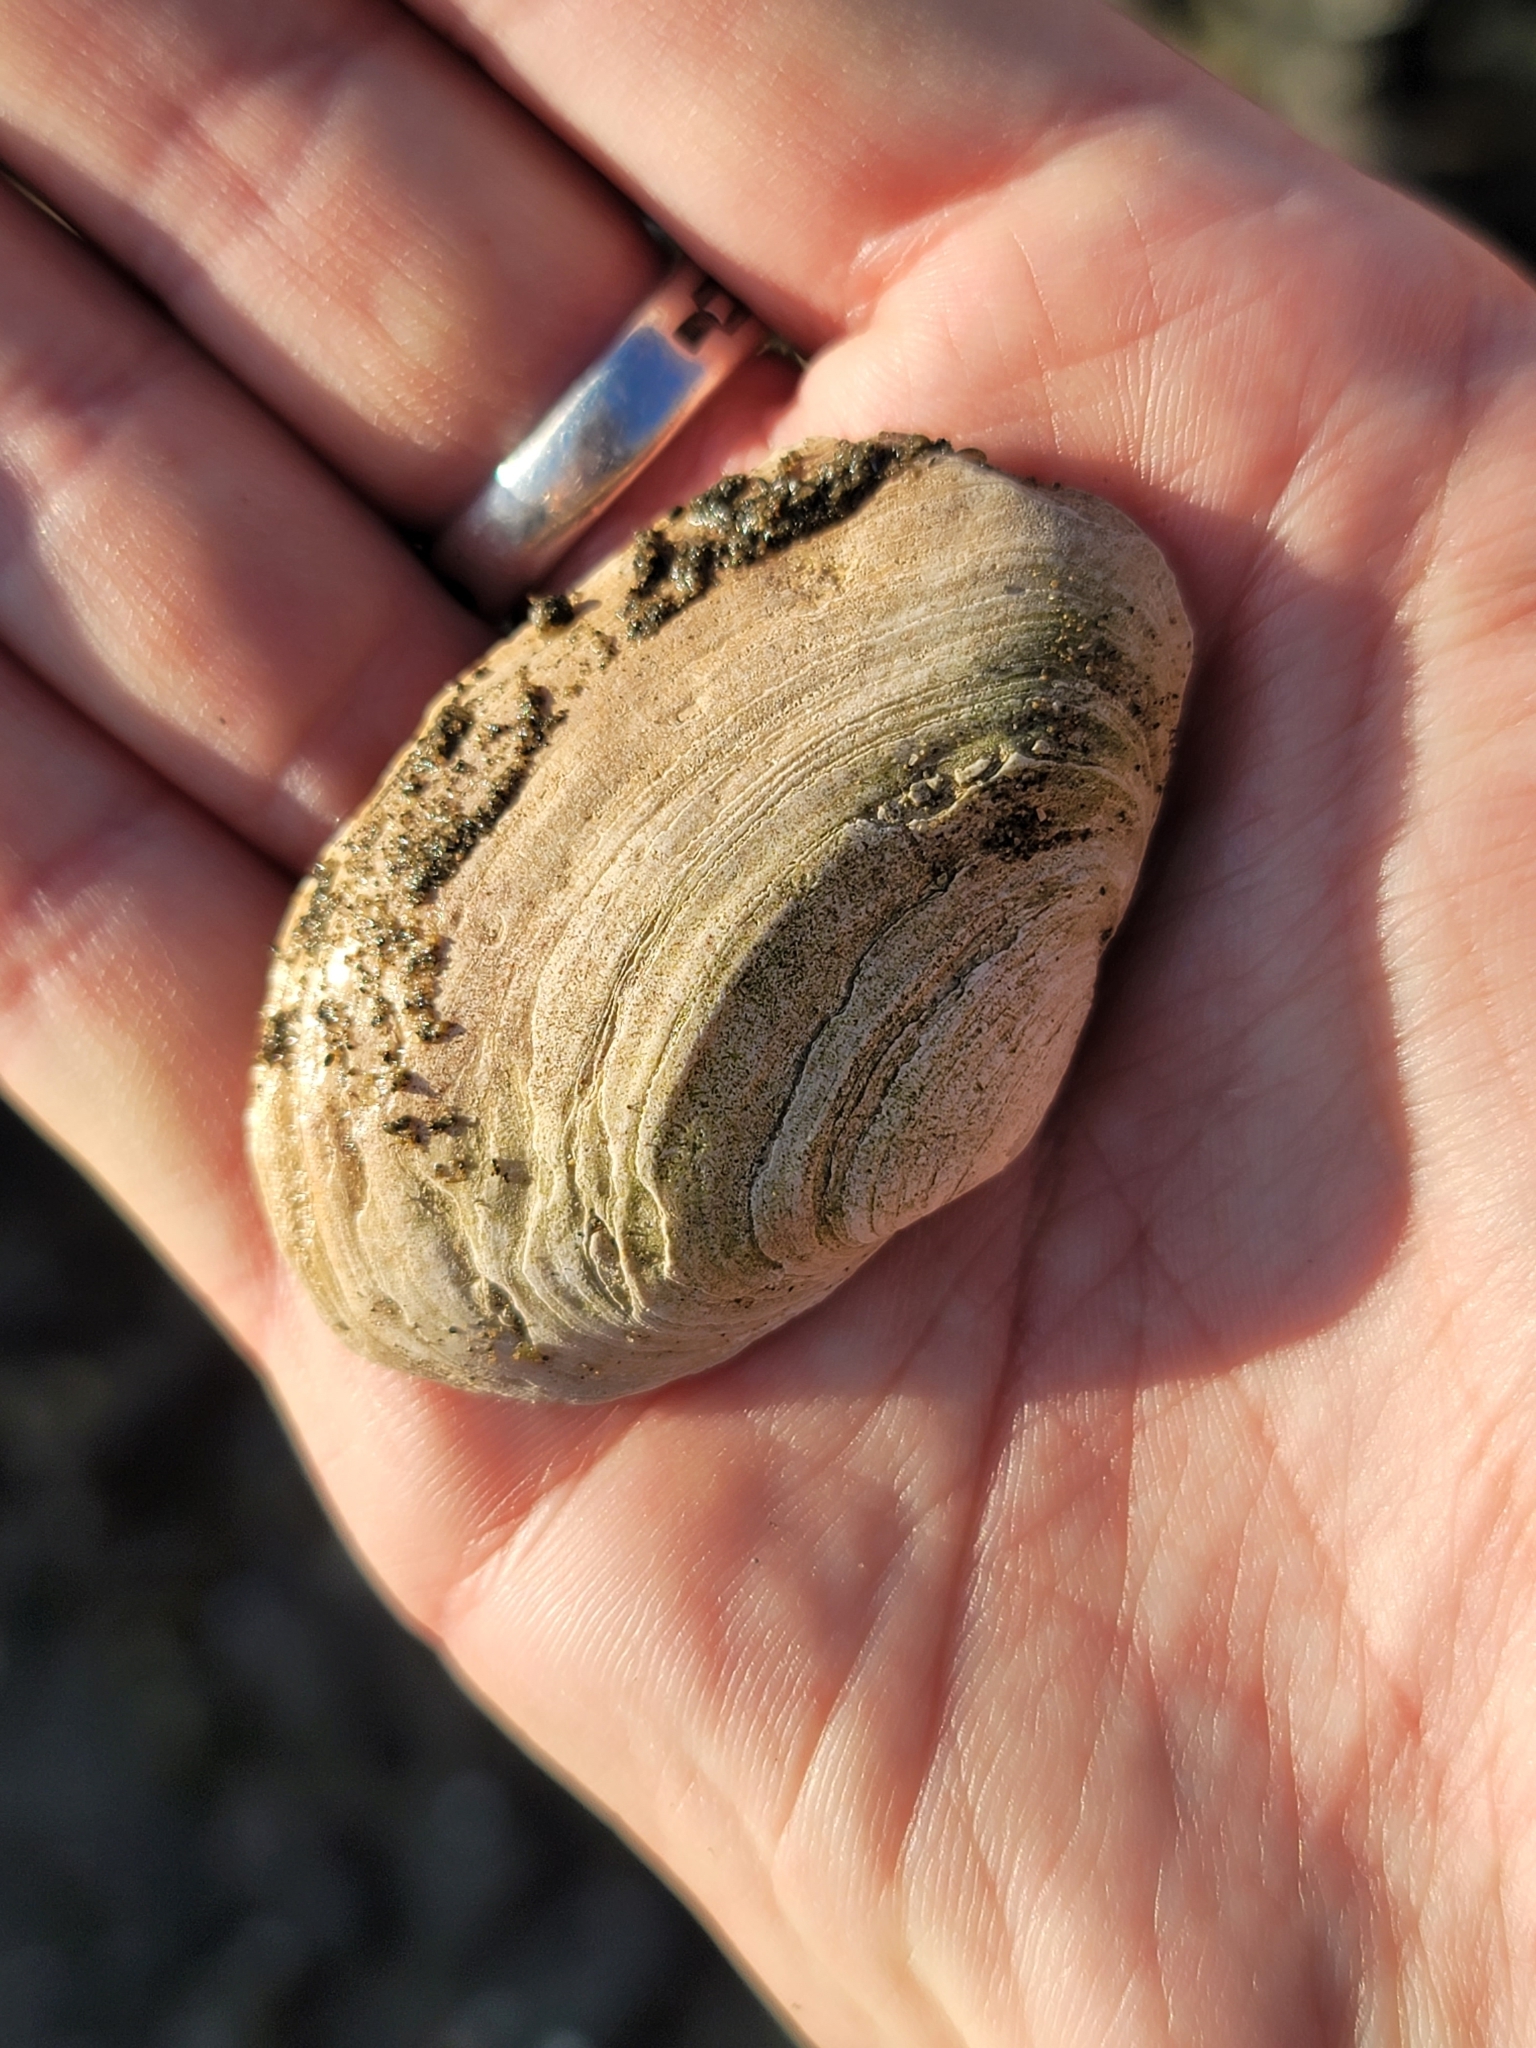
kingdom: Animalia
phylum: Mollusca
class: Bivalvia
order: Myida
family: Myidae
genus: Mya
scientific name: Mya arenaria
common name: Soft-shelled clam
